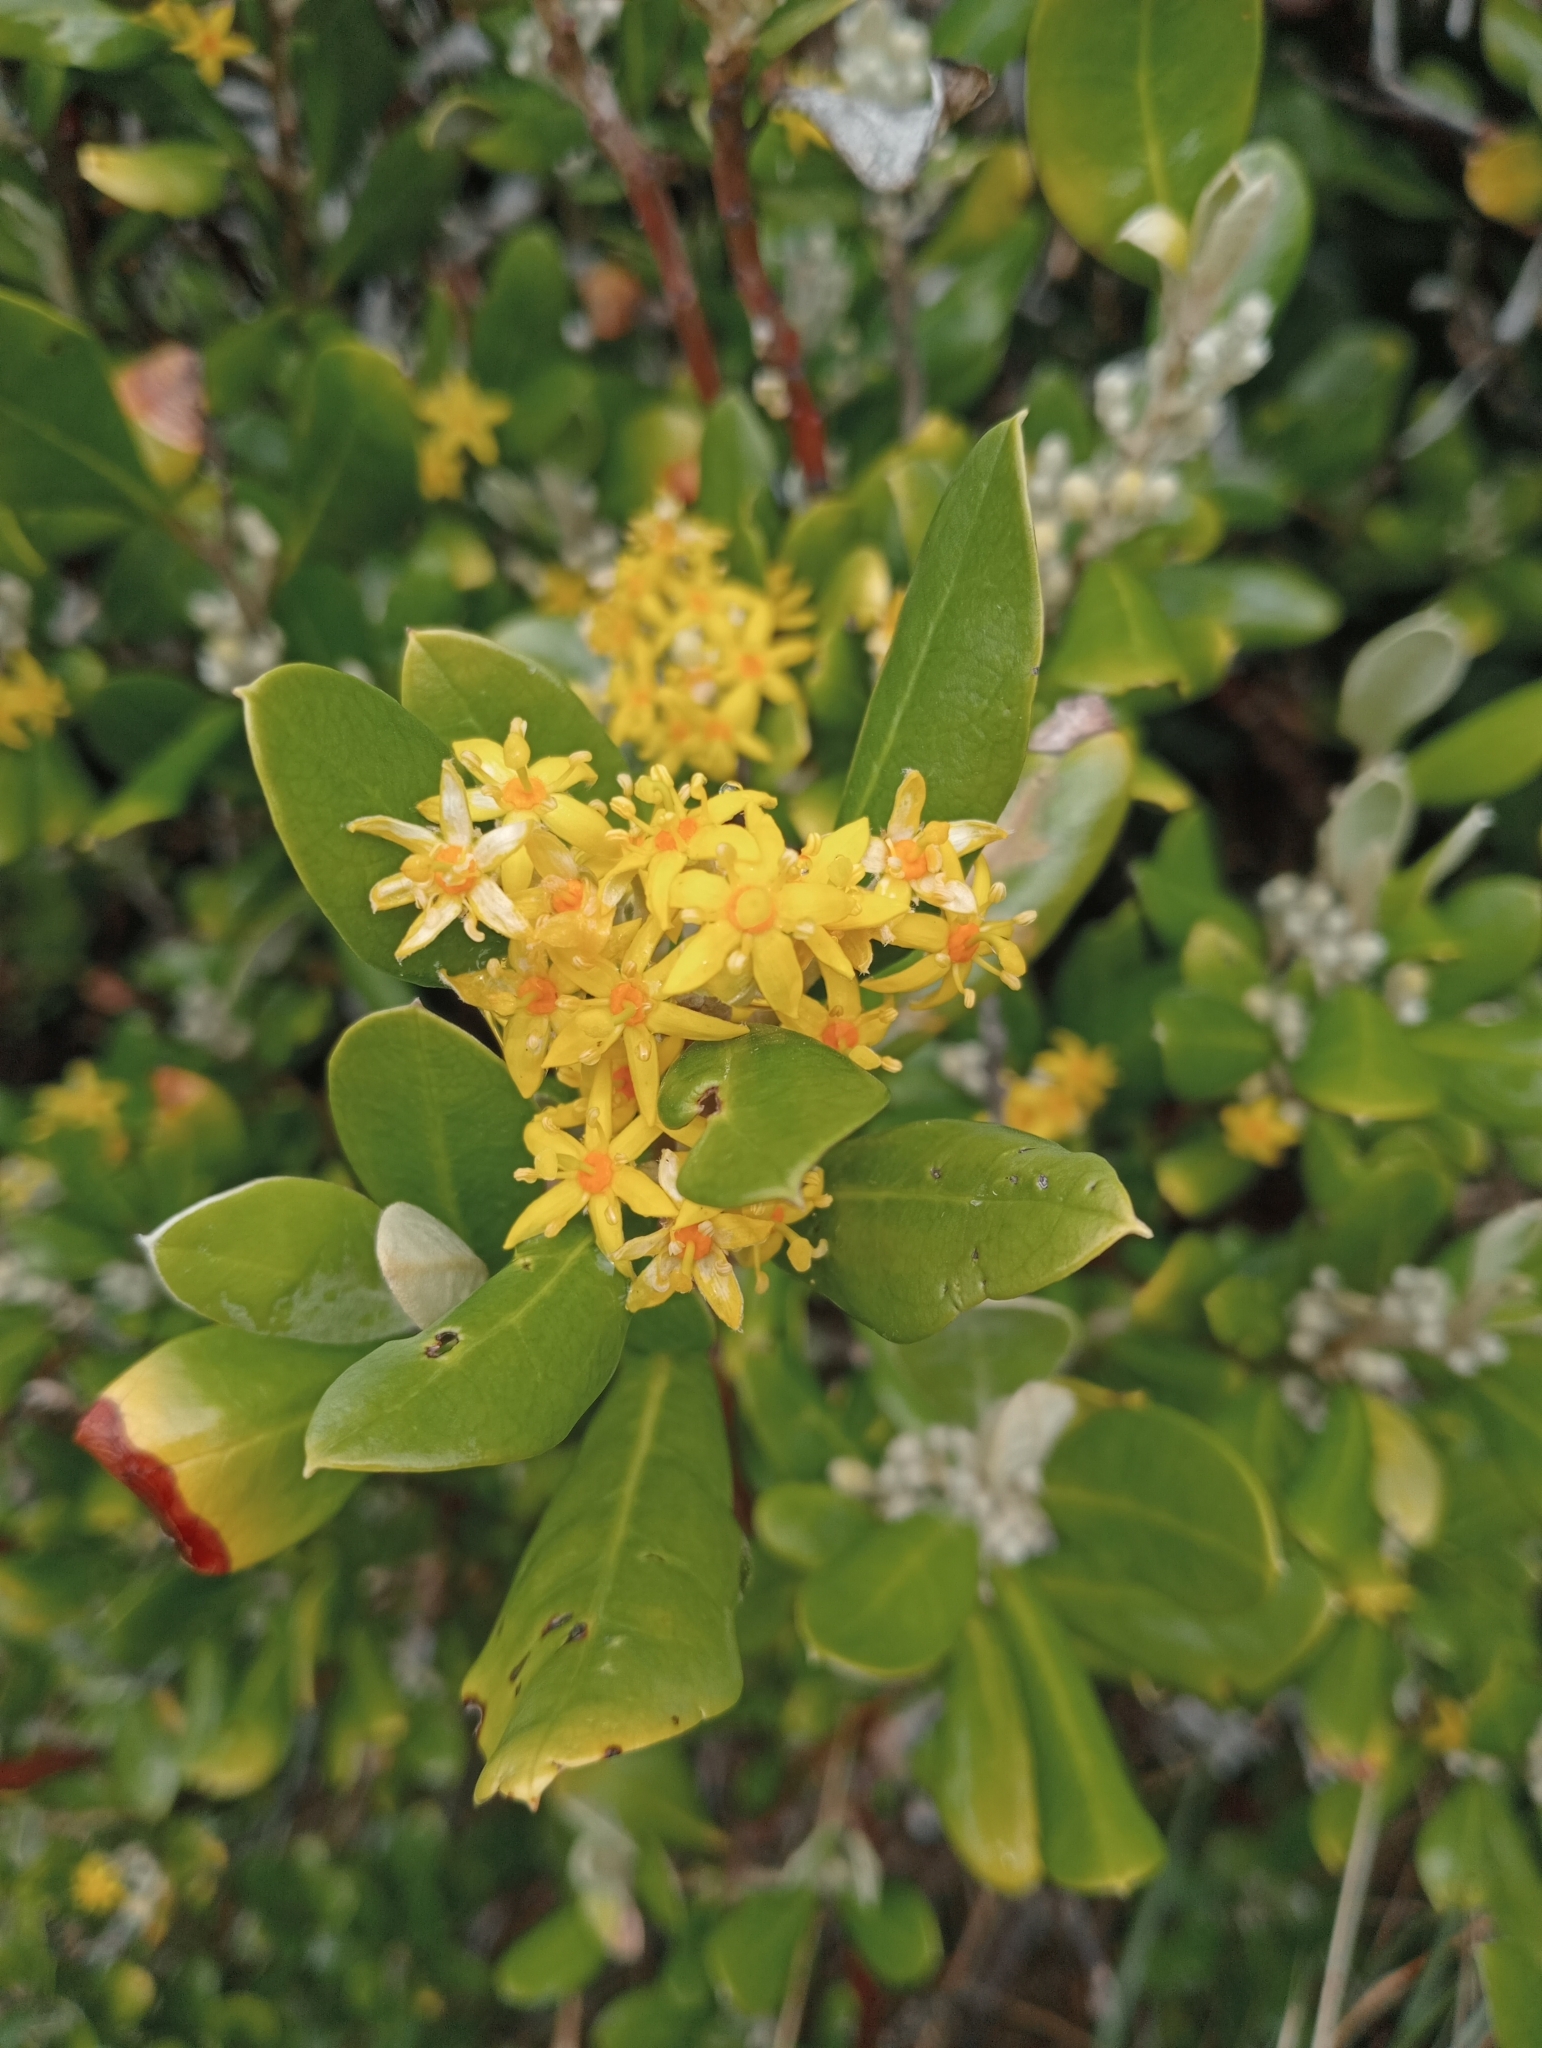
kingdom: Plantae
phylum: Tracheophyta
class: Magnoliopsida
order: Asterales
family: Argophyllaceae
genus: Corokia
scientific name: Corokia macrocarpa
